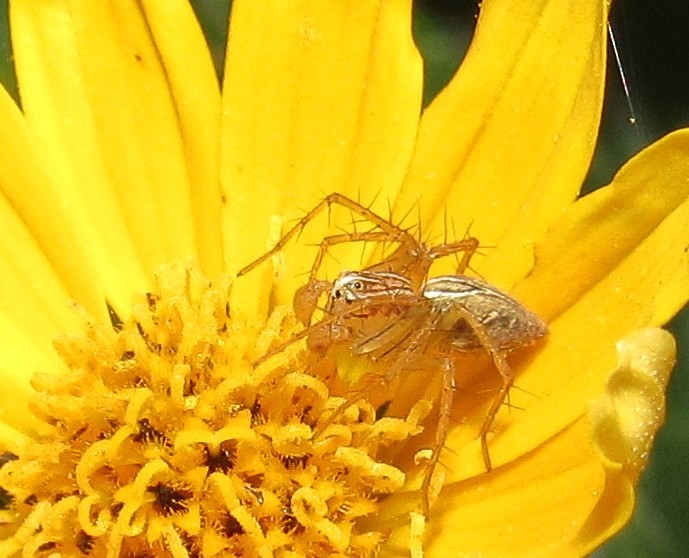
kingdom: Animalia
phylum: Arthropoda
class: Arachnida
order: Araneae
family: Oxyopidae
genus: Oxyopes
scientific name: Oxyopes salticus
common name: Lynx spiders
